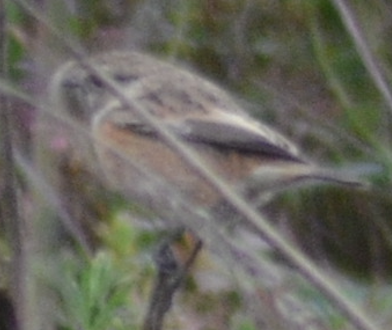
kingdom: Animalia
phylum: Chordata
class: Aves
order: Passeriformes
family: Muscicapidae
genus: Saxicola
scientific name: Saxicola rubicola
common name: European stonechat
